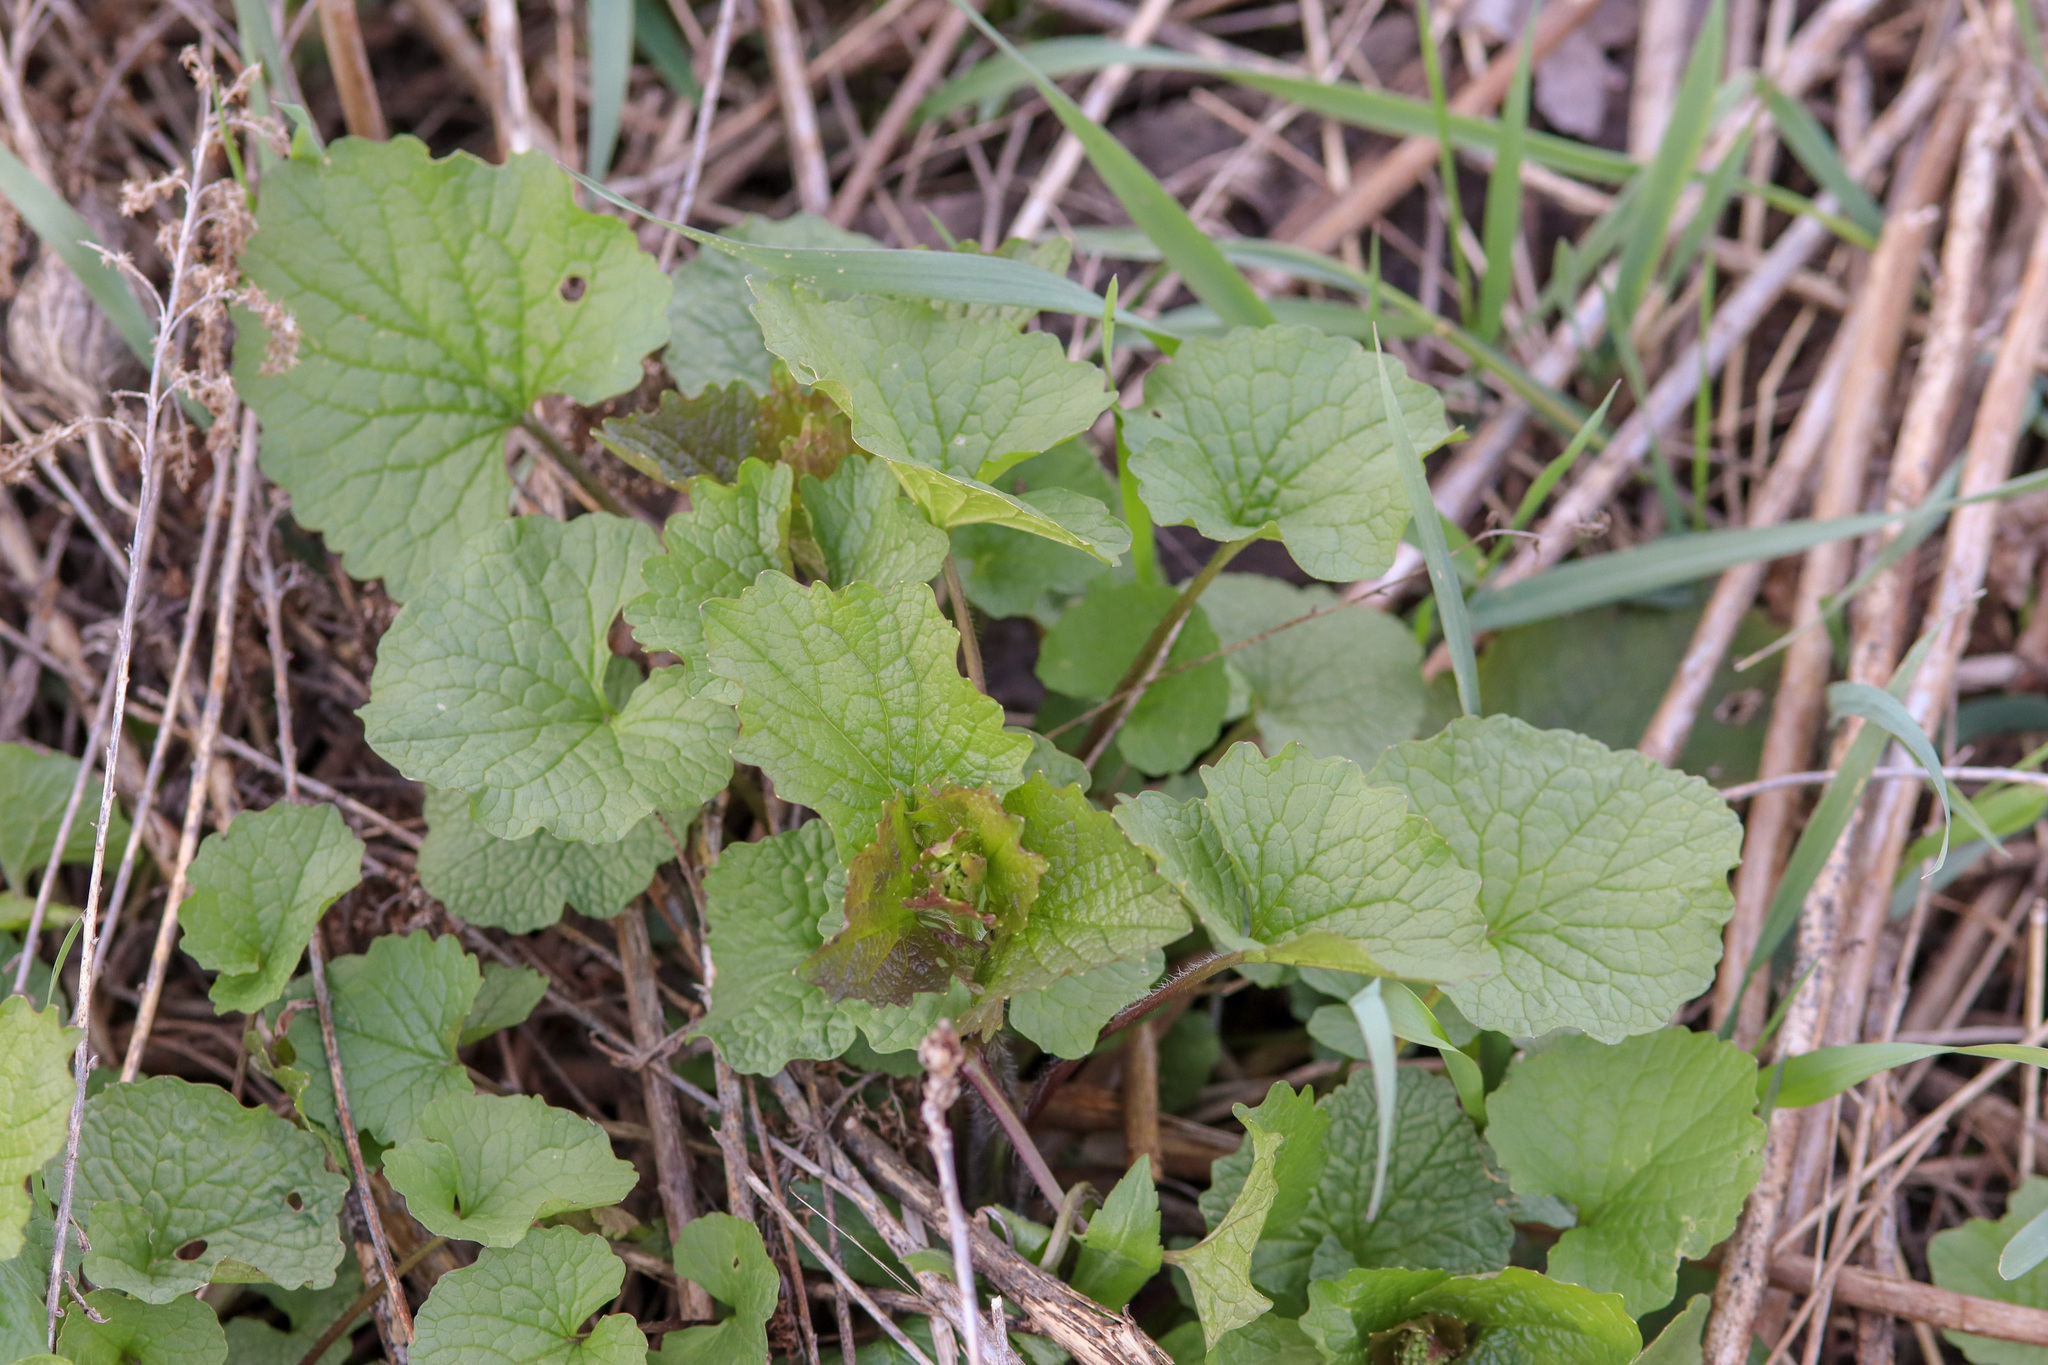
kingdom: Plantae
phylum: Tracheophyta
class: Magnoliopsida
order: Brassicales
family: Brassicaceae
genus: Alliaria
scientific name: Alliaria petiolata
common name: Garlic mustard
